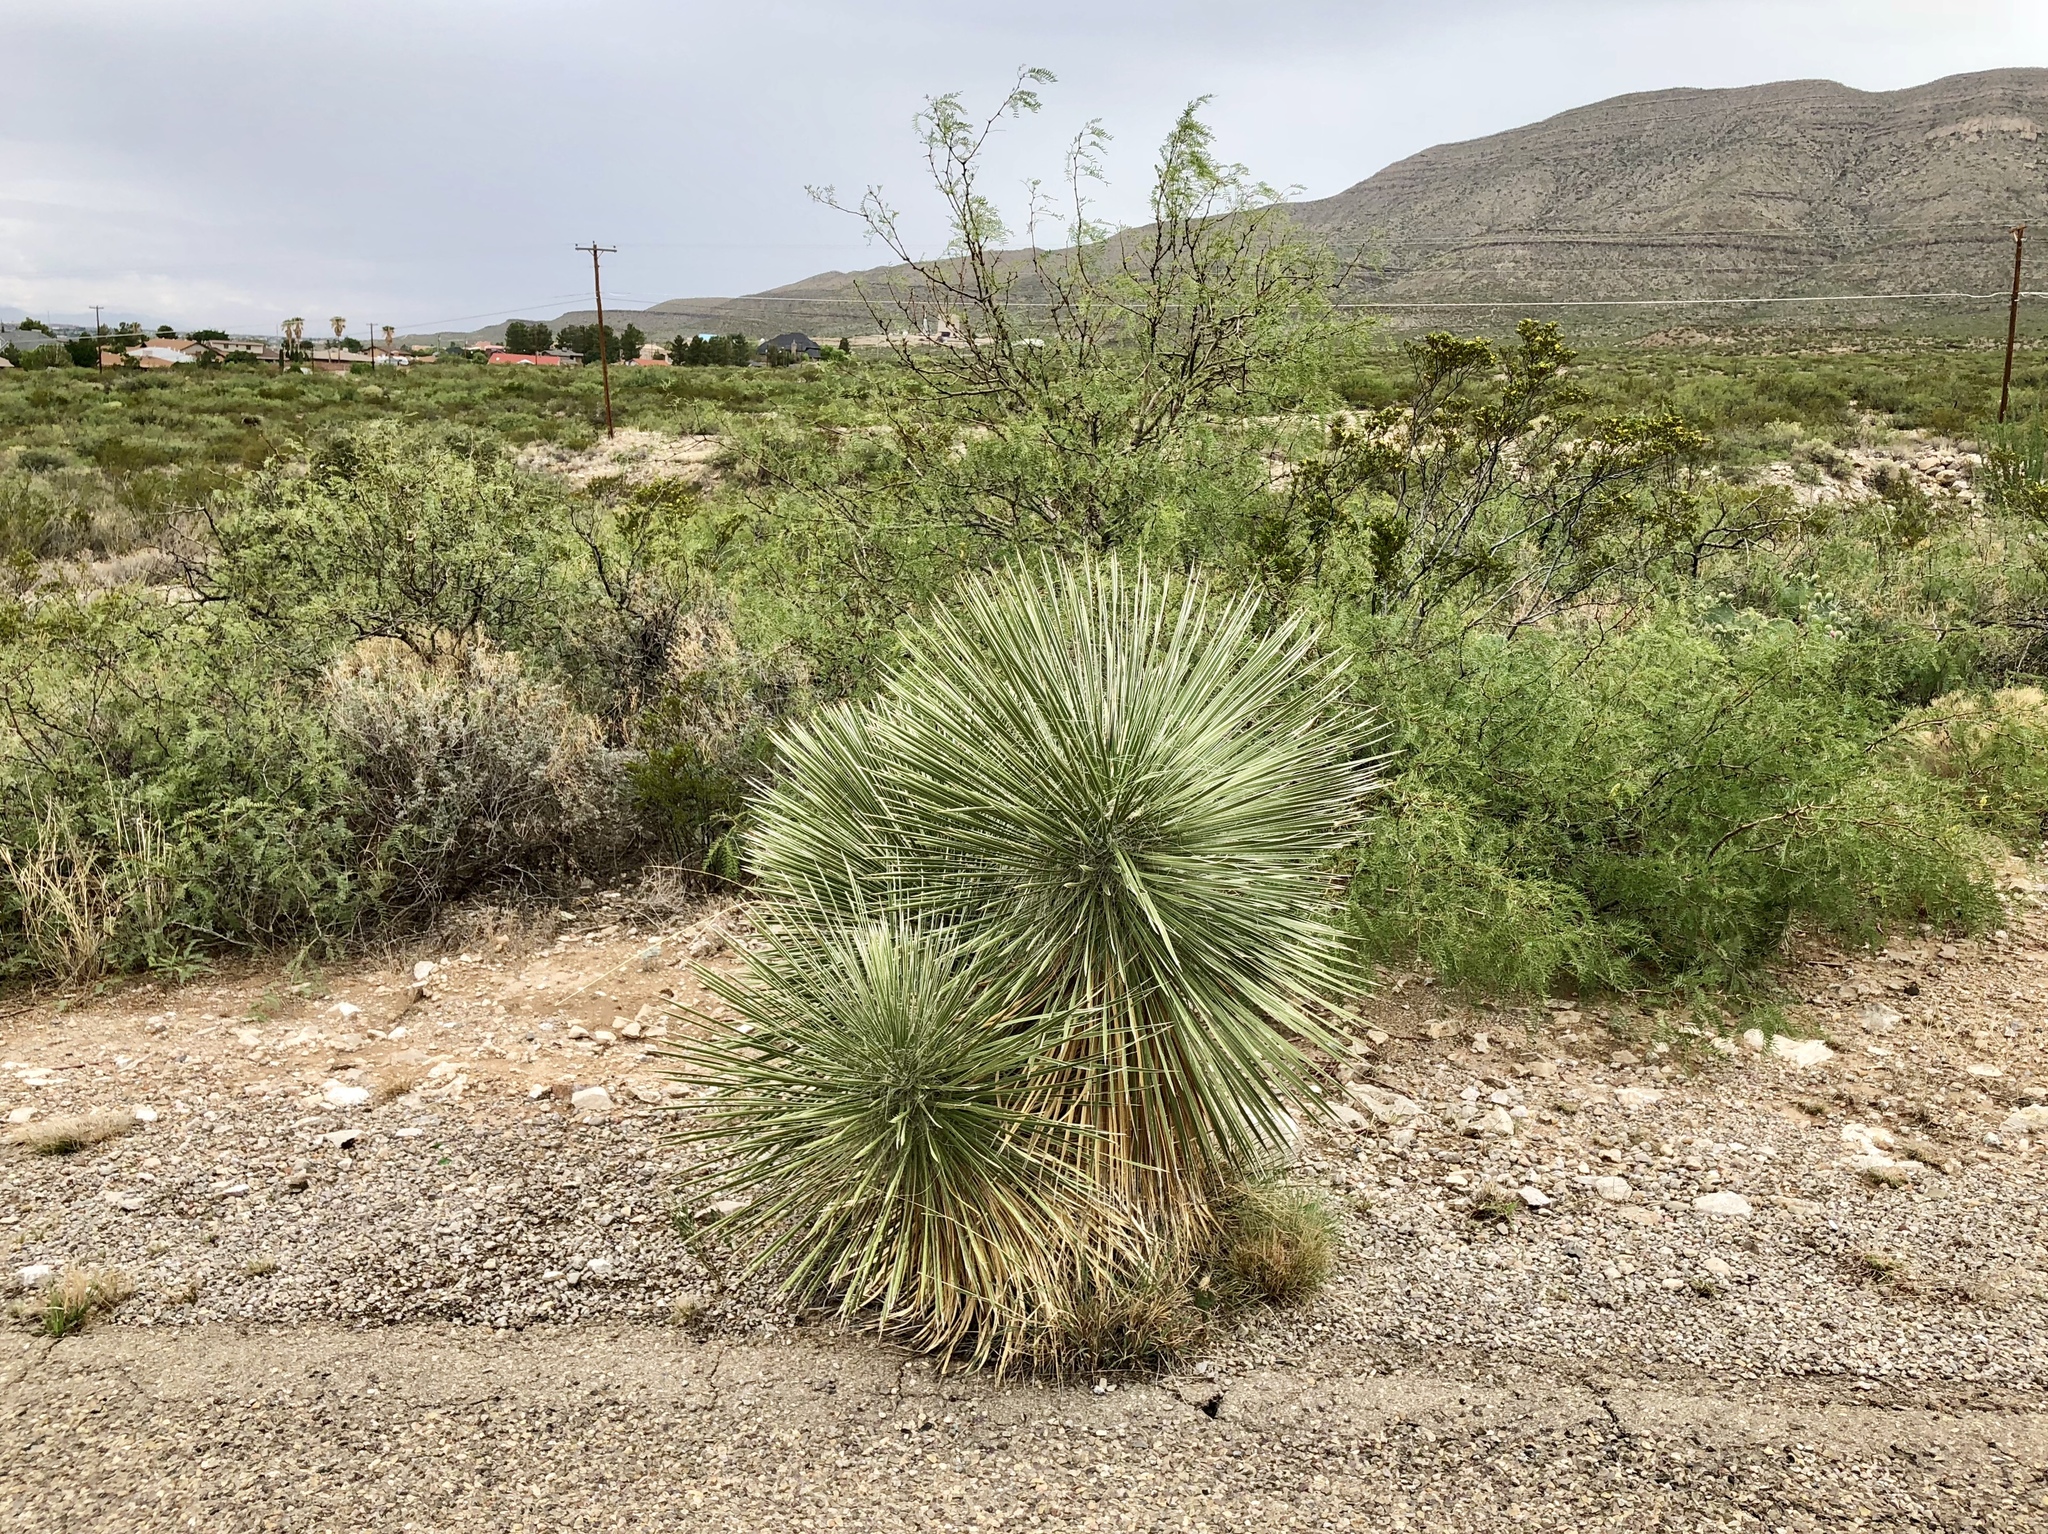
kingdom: Plantae
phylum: Tracheophyta
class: Liliopsida
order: Asparagales
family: Asparagaceae
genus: Yucca
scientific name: Yucca elata
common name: Palmella
